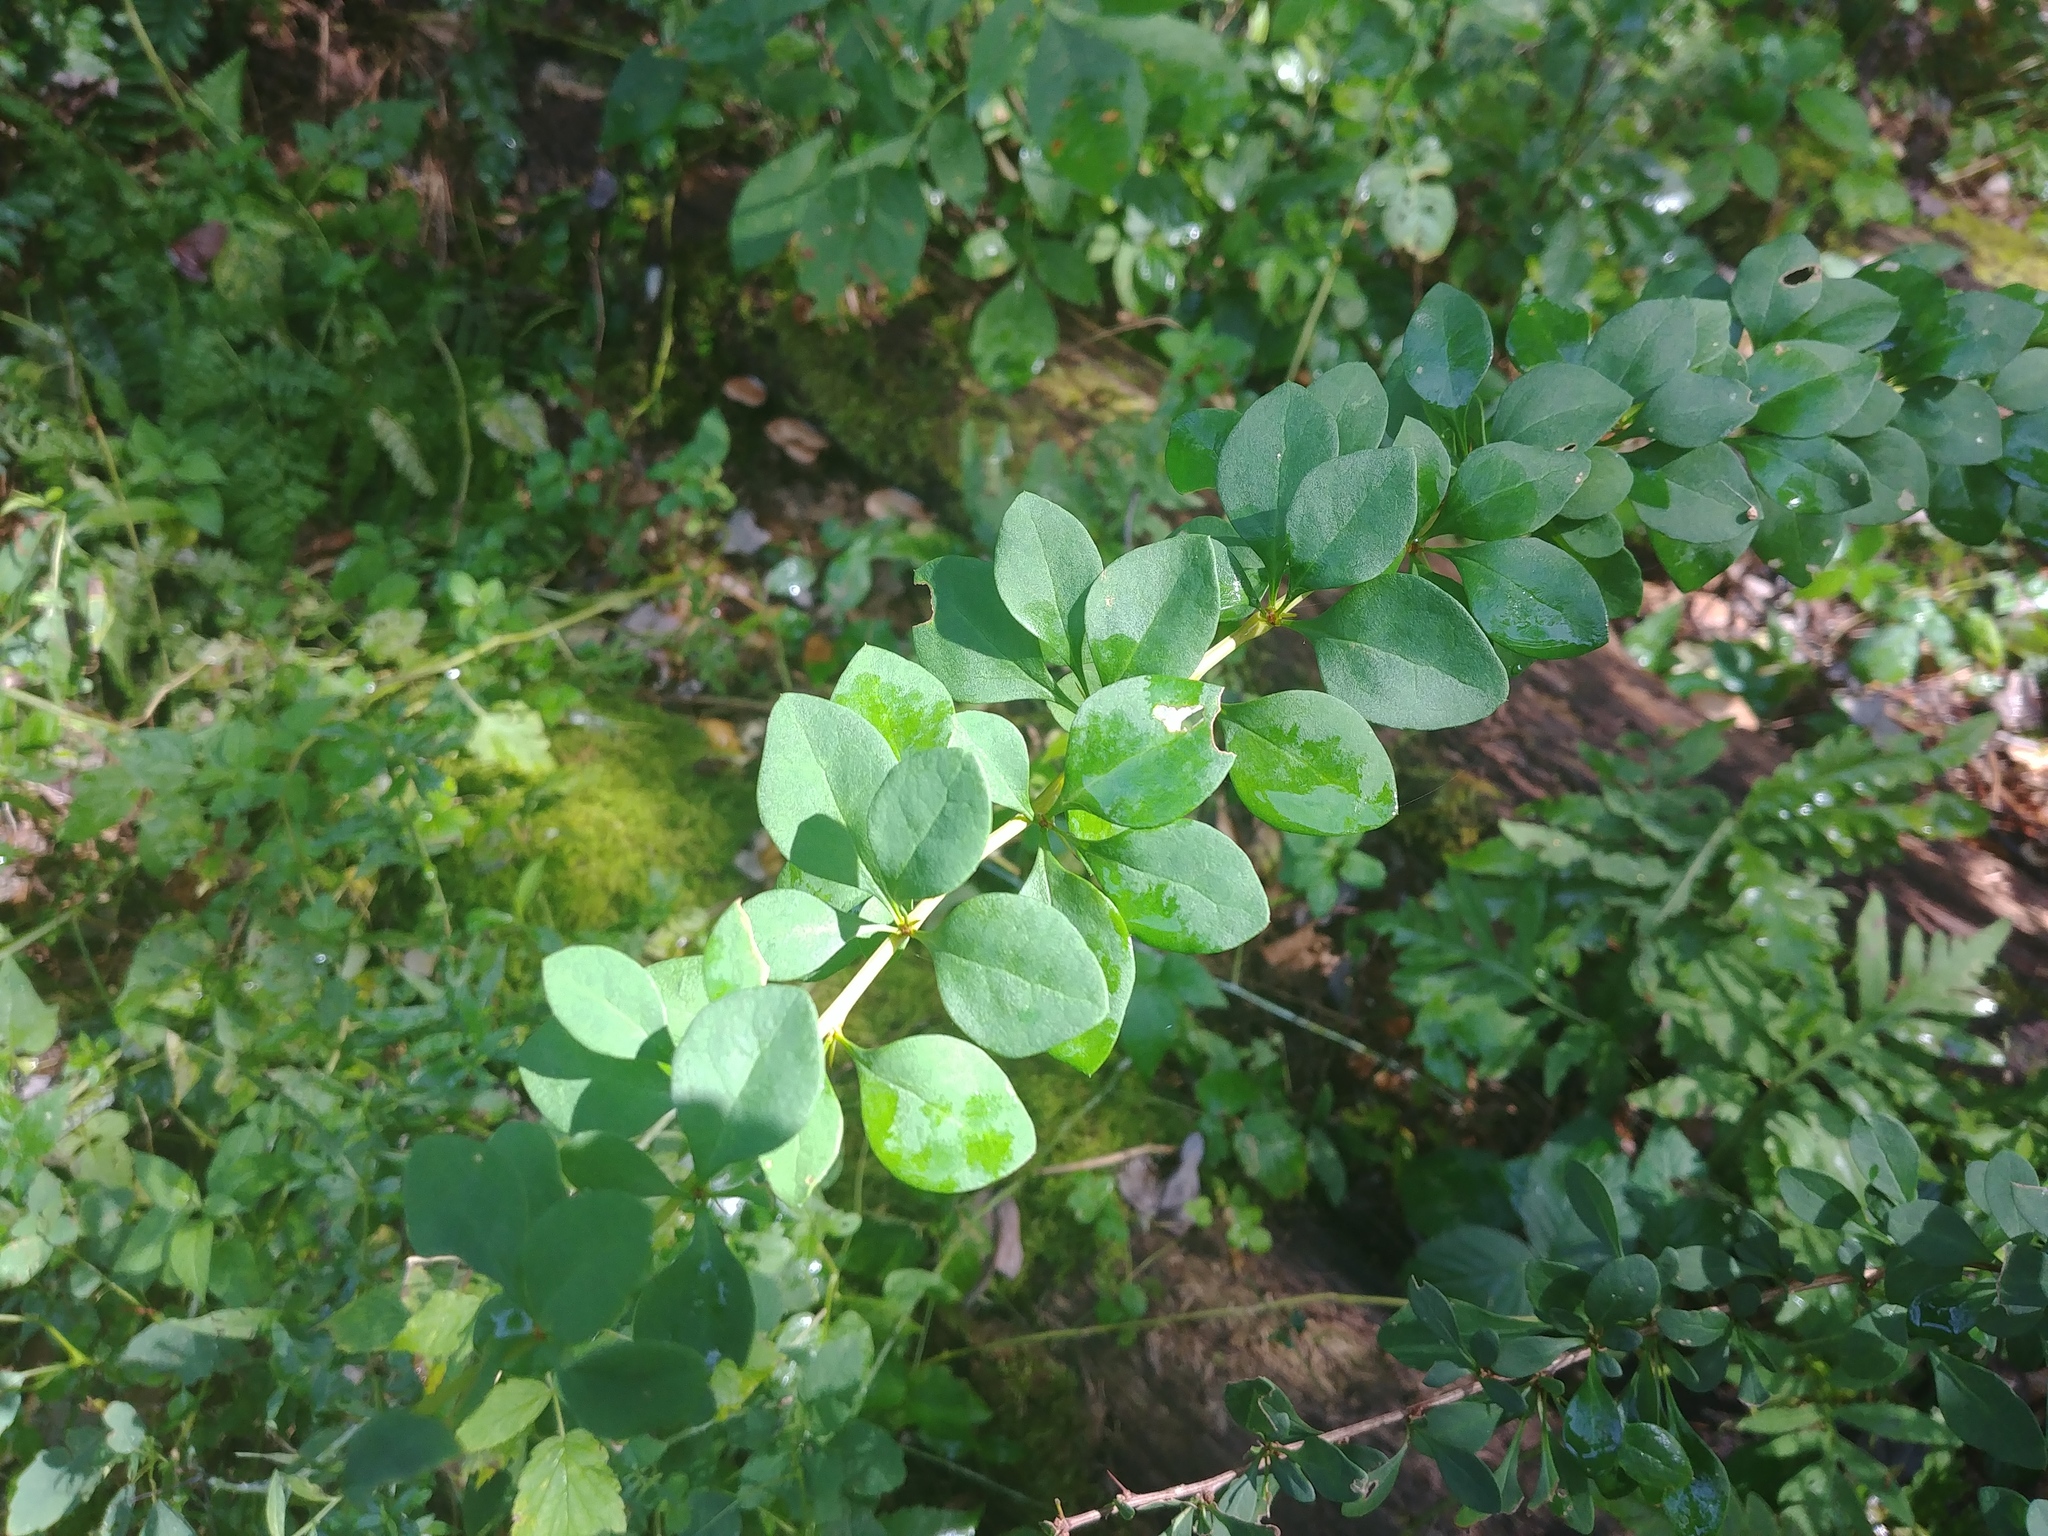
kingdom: Plantae
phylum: Tracheophyta
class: Magnoliopsida
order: Ranunculales
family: Berberidaceae
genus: Berberis
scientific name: Berberis thunbergii
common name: Japanese barberry
